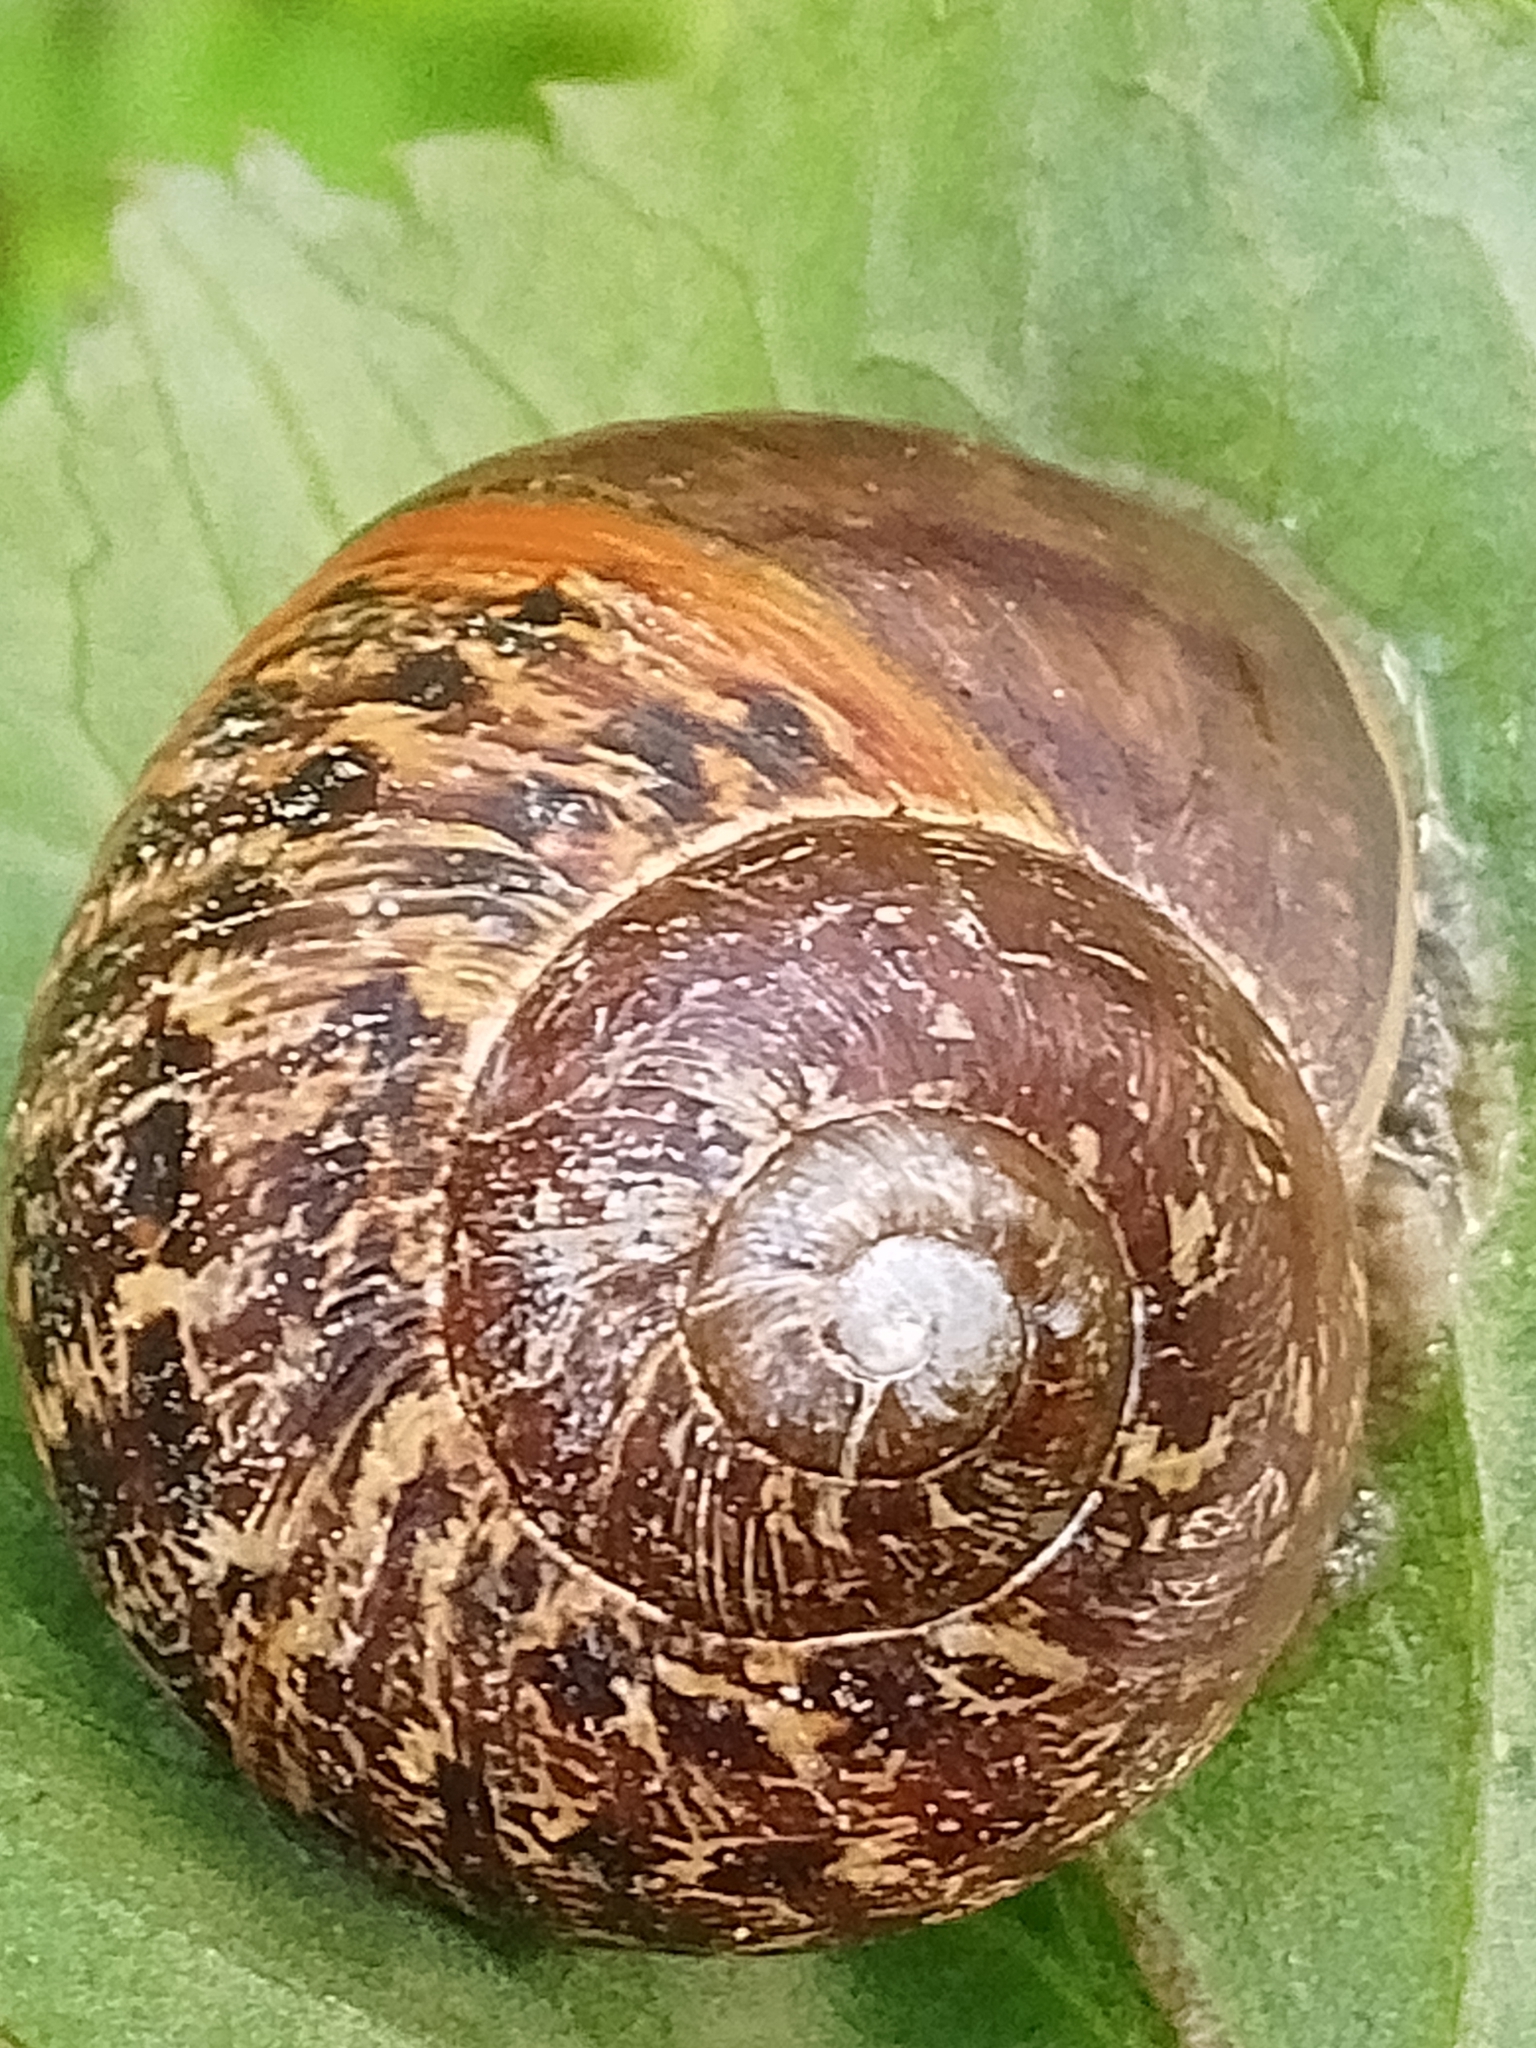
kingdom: Animalia
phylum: Mollusca
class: Gastropoda
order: Stylommatophora
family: Helicidae
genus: Cornu
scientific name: Cornu aspersum
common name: Brown garden snail
